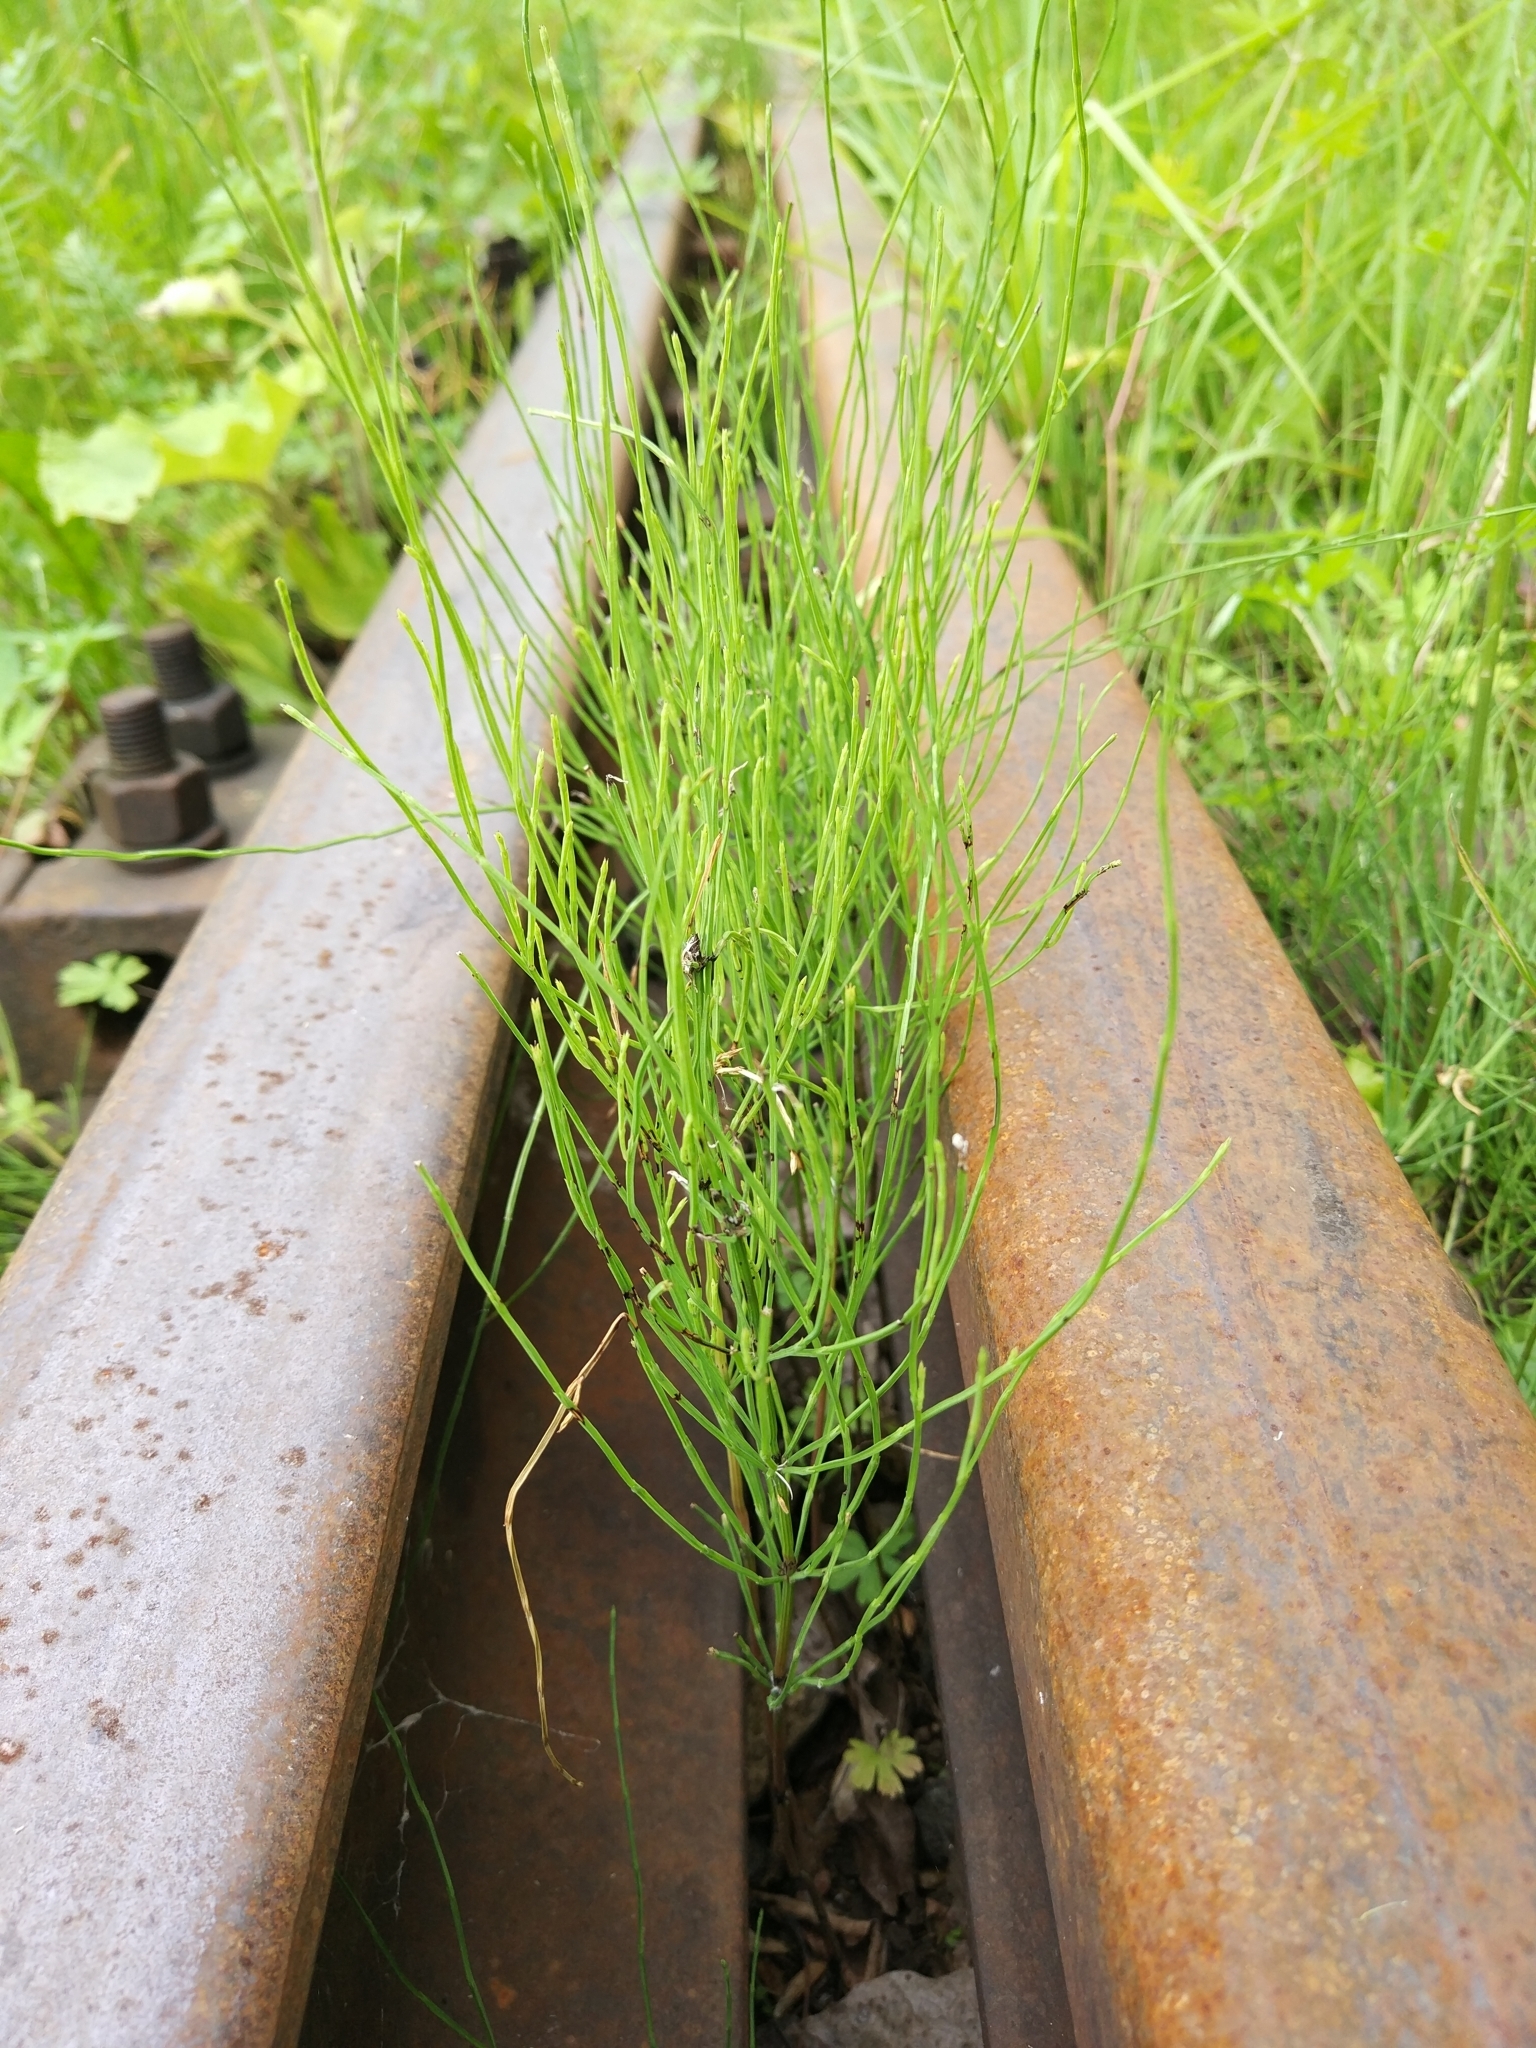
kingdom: Plantae
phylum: Tracheophyta
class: Polypodiopsida
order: Equisetales
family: Equisetaceae
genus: Equisetum
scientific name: Equisetum arvense
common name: Field horsetail
